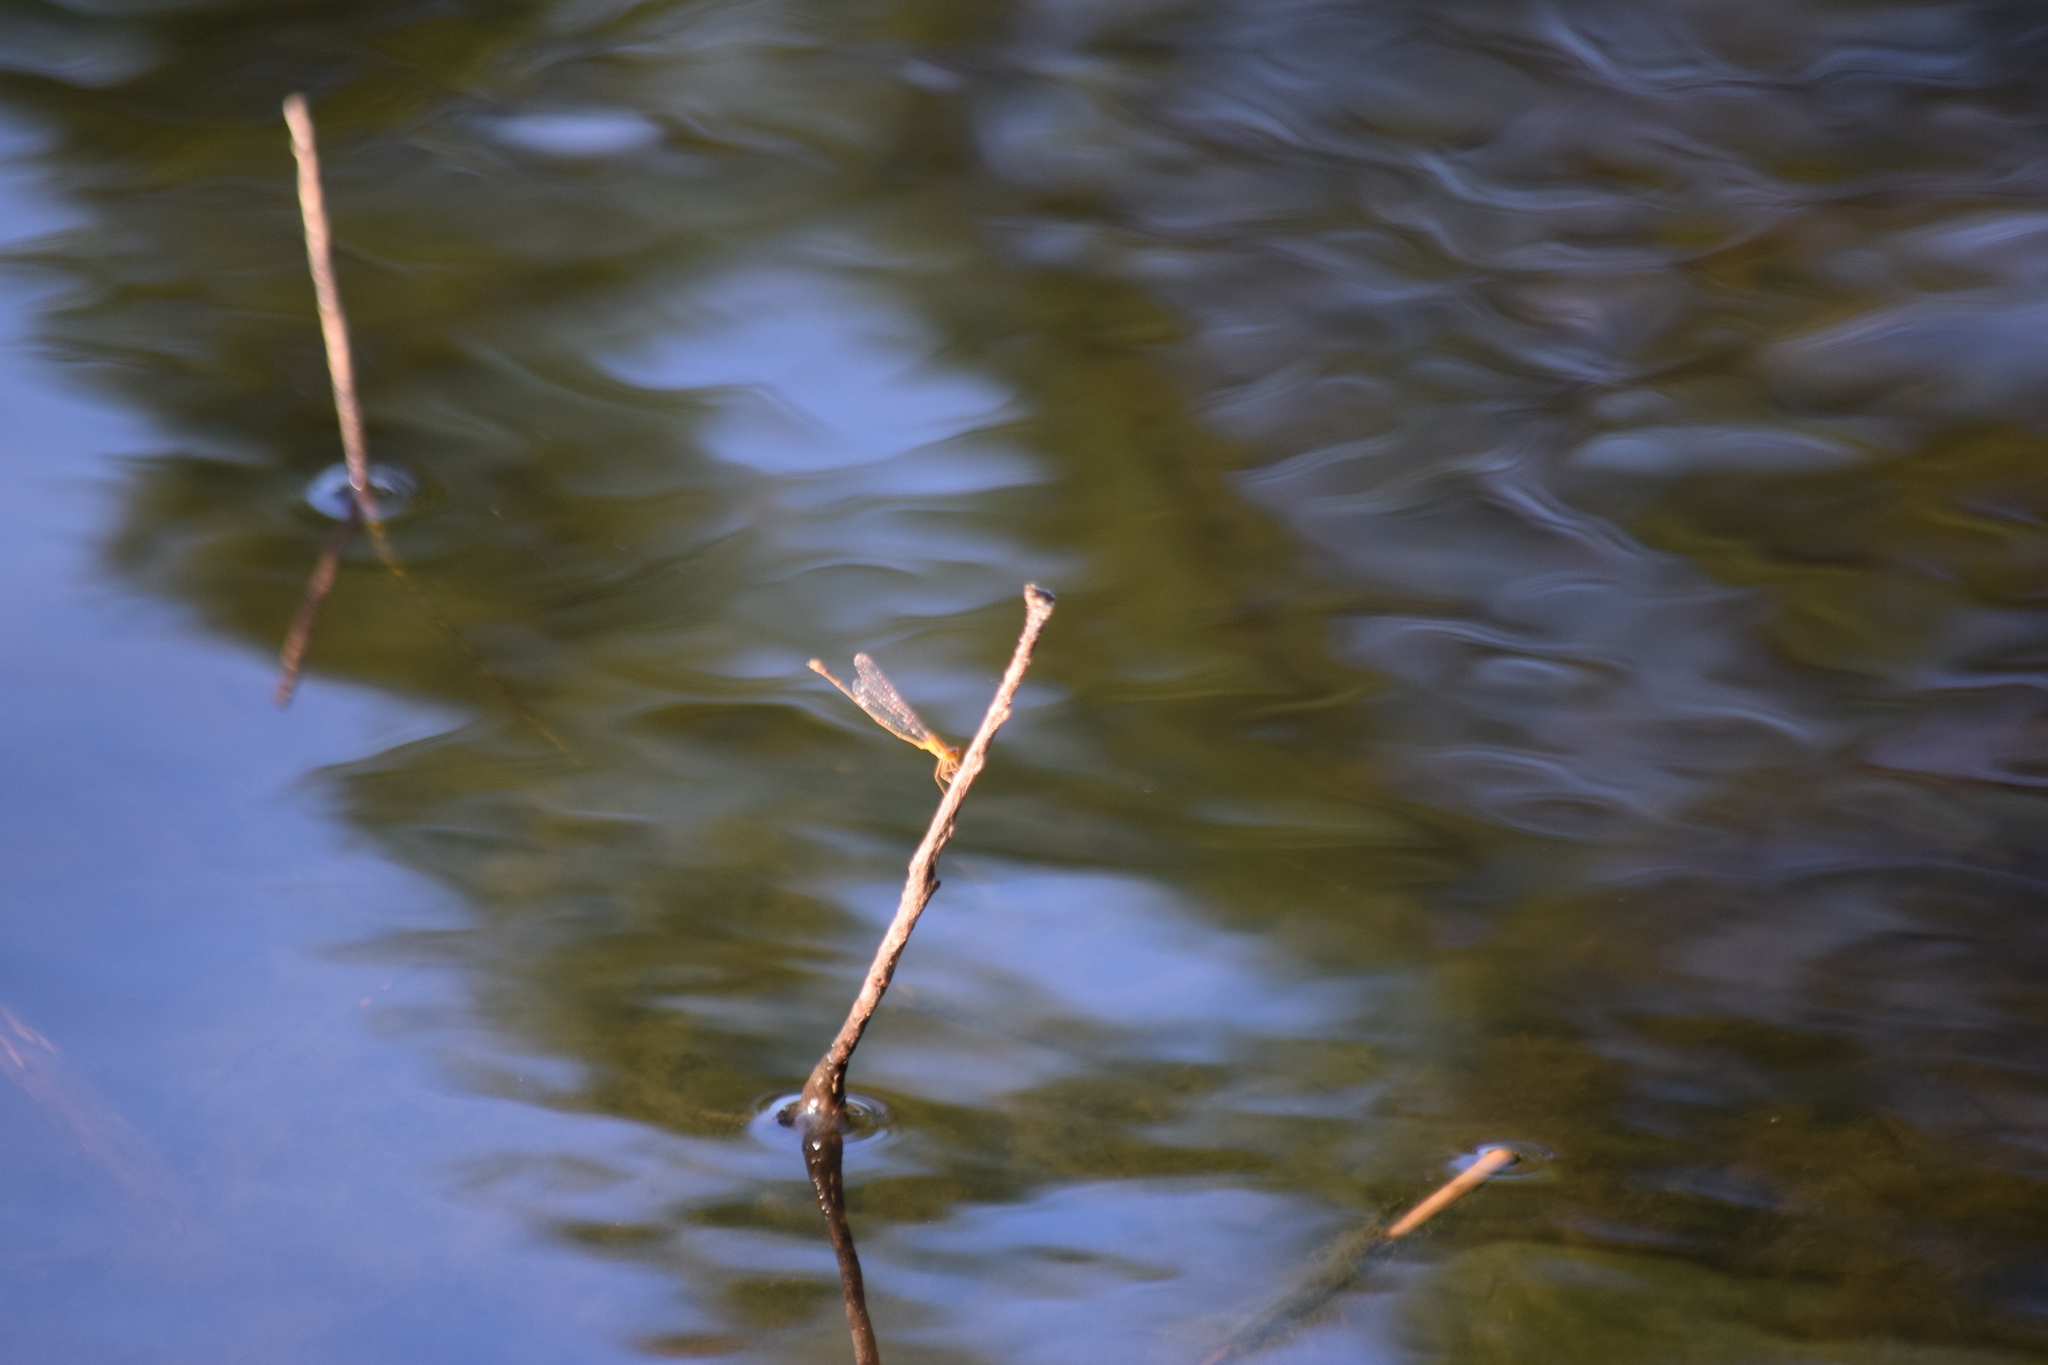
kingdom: Animalia
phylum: Arthropoda
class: Insecta
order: Odonata
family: Coenagrionidae
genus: Enallagma
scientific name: Enallagma signatum
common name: Orange bluet
